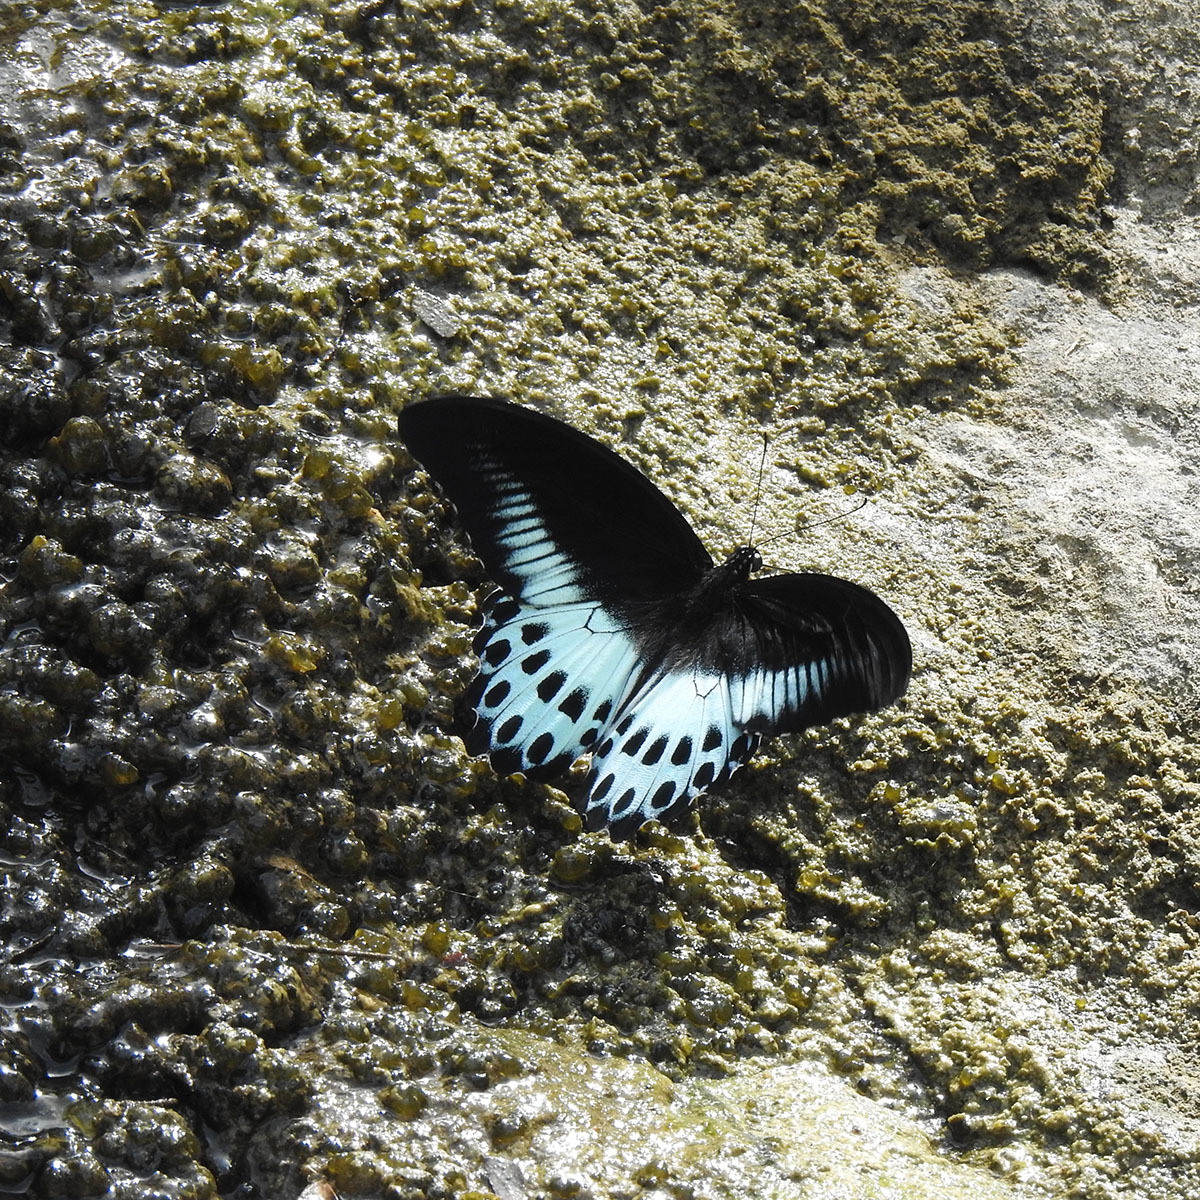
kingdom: Animalia
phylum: Arthropoda
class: Insecta
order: Lepidoptera
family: Papilionidae
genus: Papilio
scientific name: Papilio memnon
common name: Great mormon
